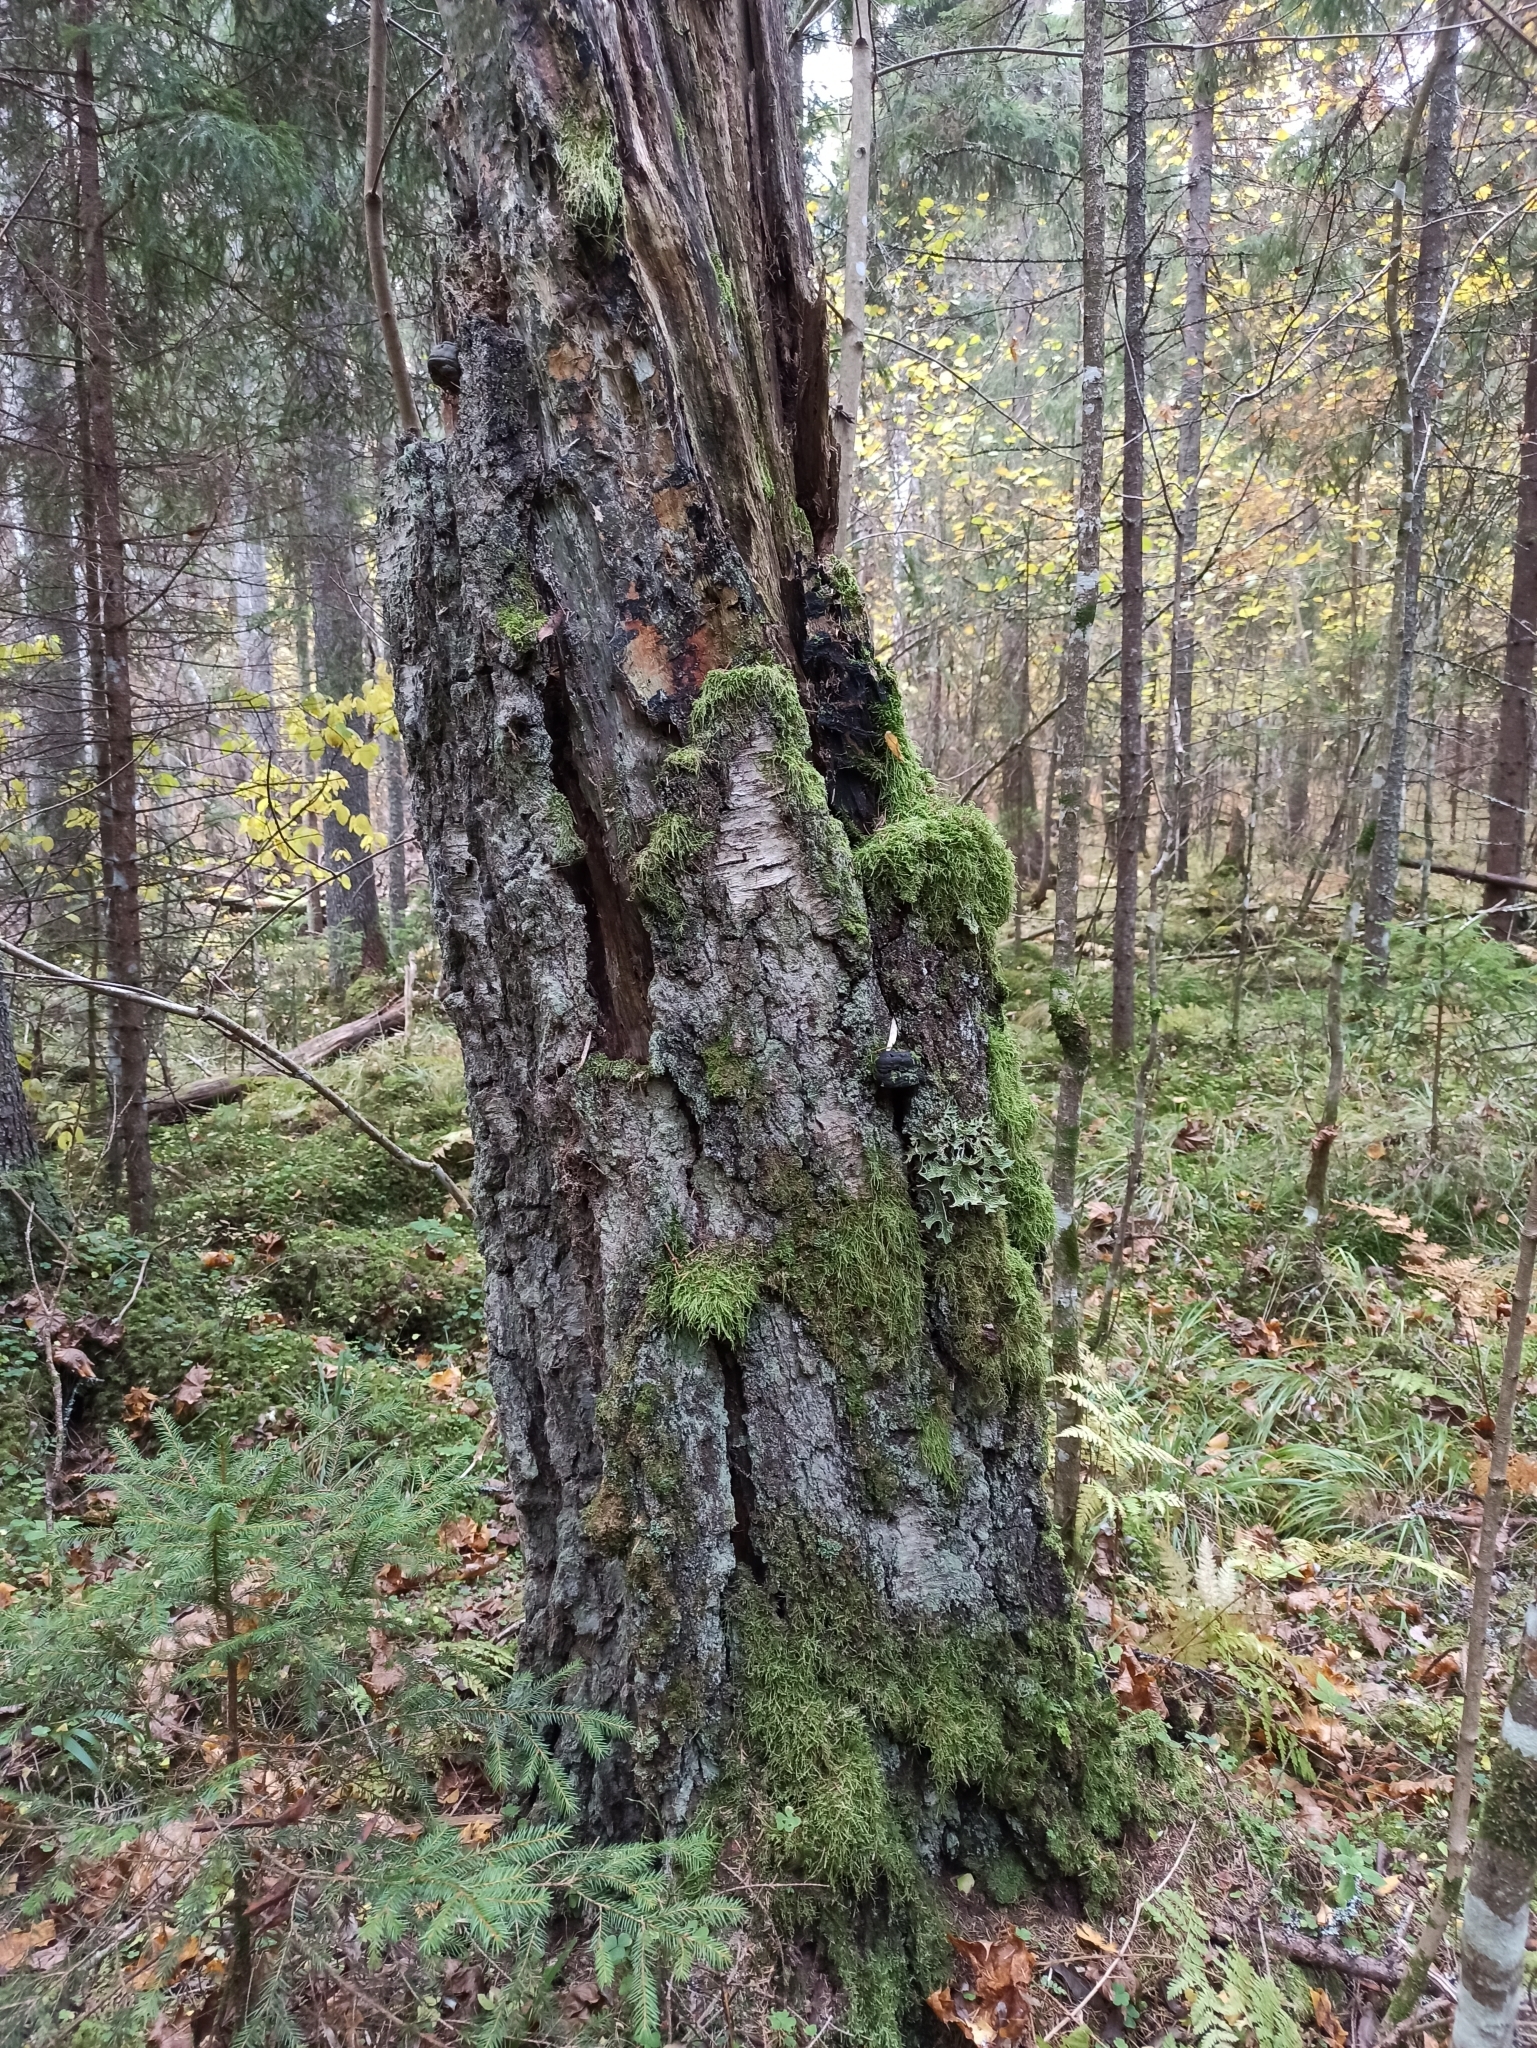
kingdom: Fungi
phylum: Ascomycota
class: Lecanoromycetes
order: Peltigerales
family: Lobariaceae
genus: Lobaria
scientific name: Lobaria pulmonaria
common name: Lungwort
